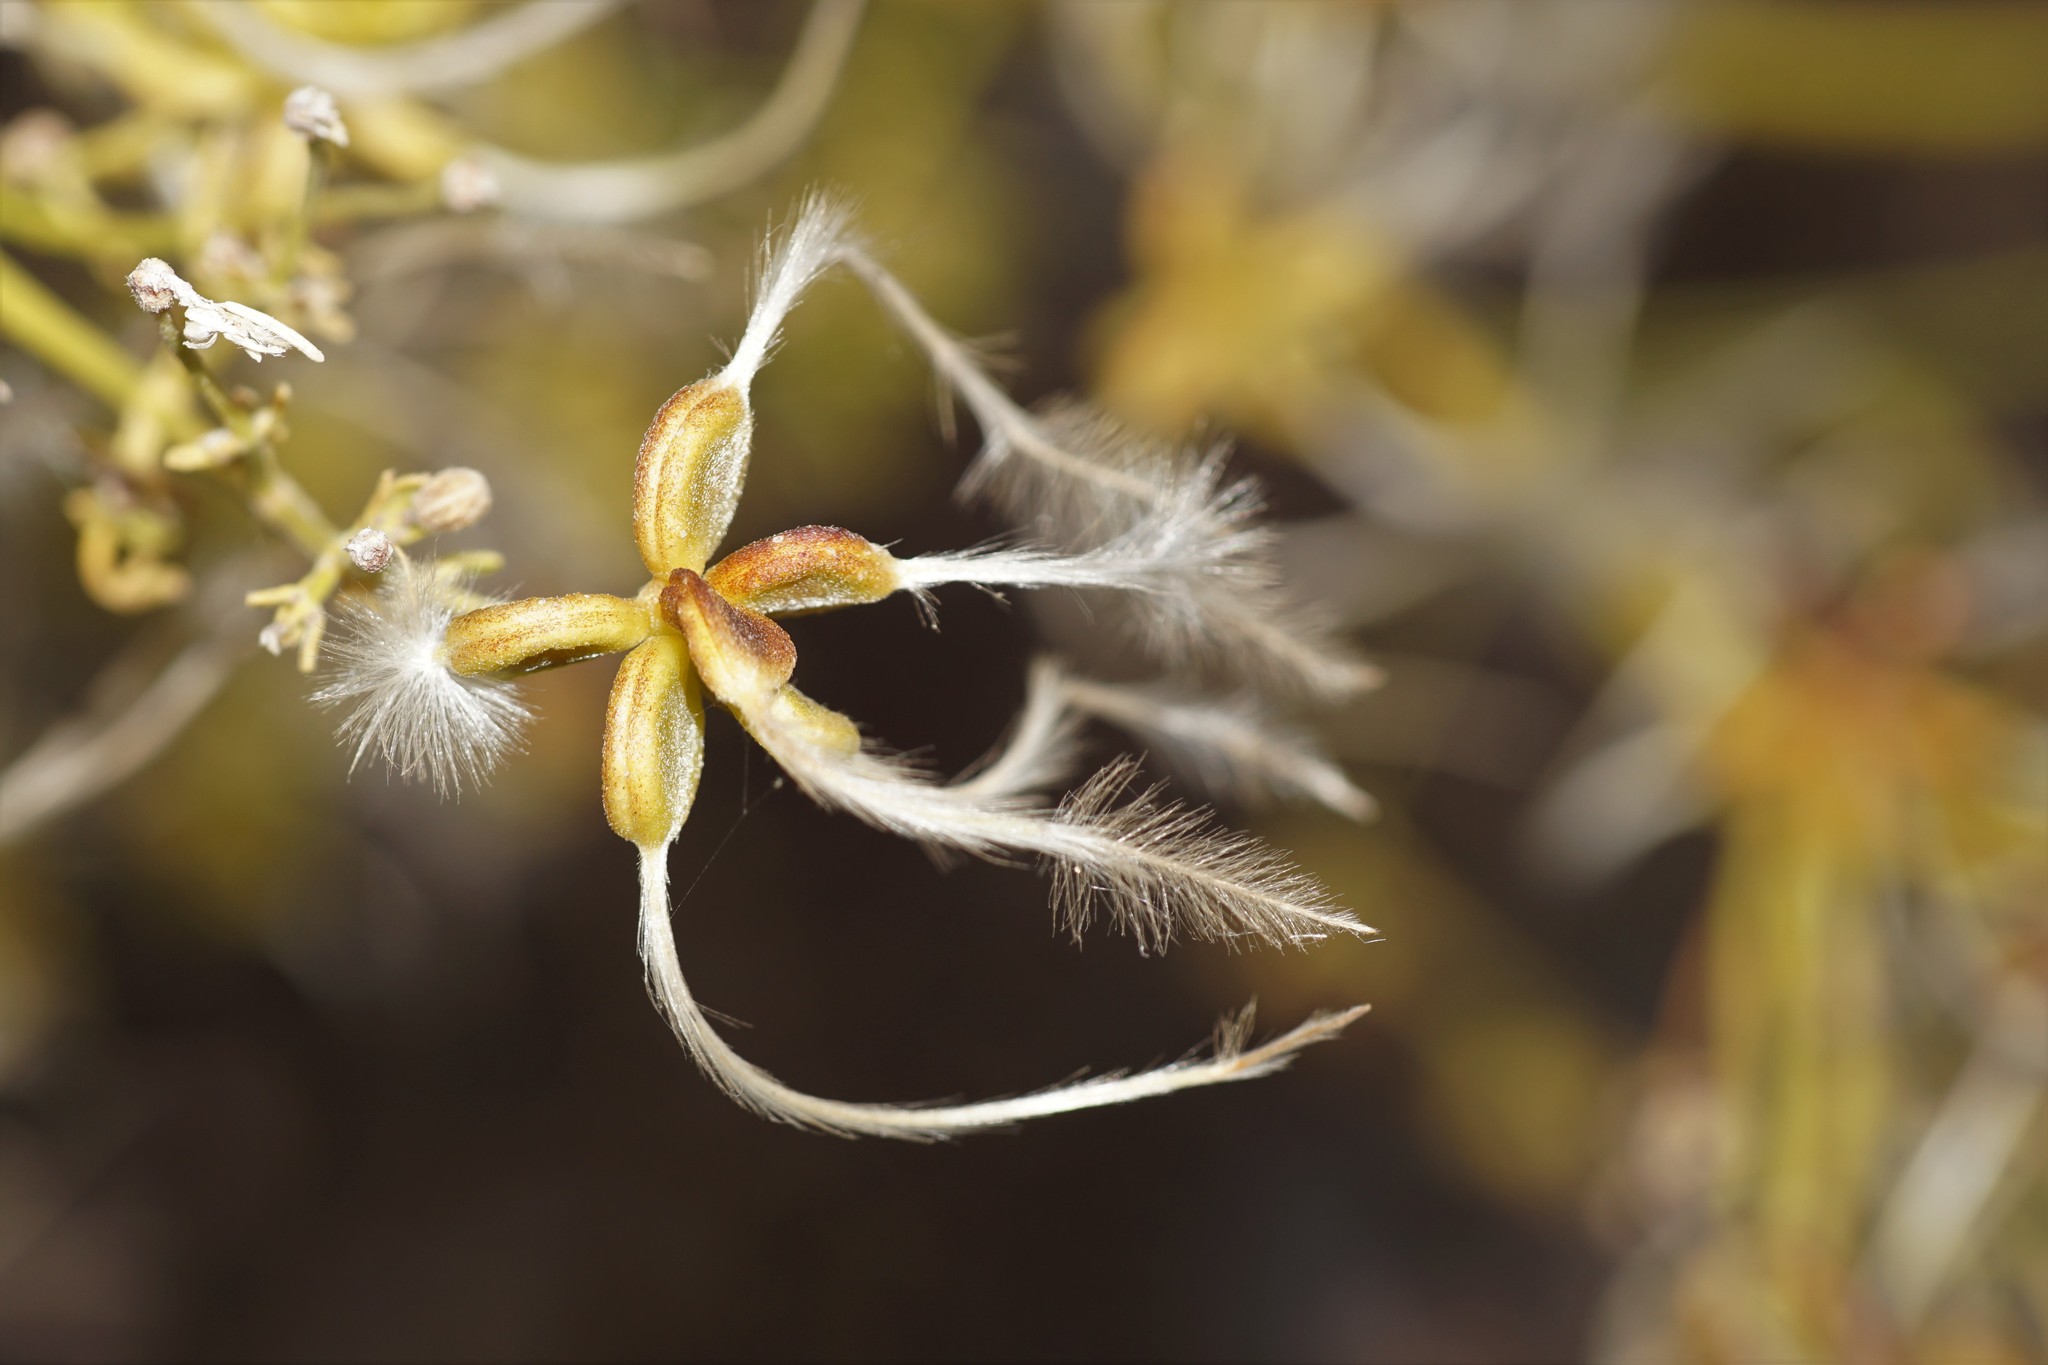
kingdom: Plantae
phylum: Tracheophyta
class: Magnoliopsida
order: Ranunculales
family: Ranunculaceae
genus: Clematis
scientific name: Clematis flammula
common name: Virgin's-bower
